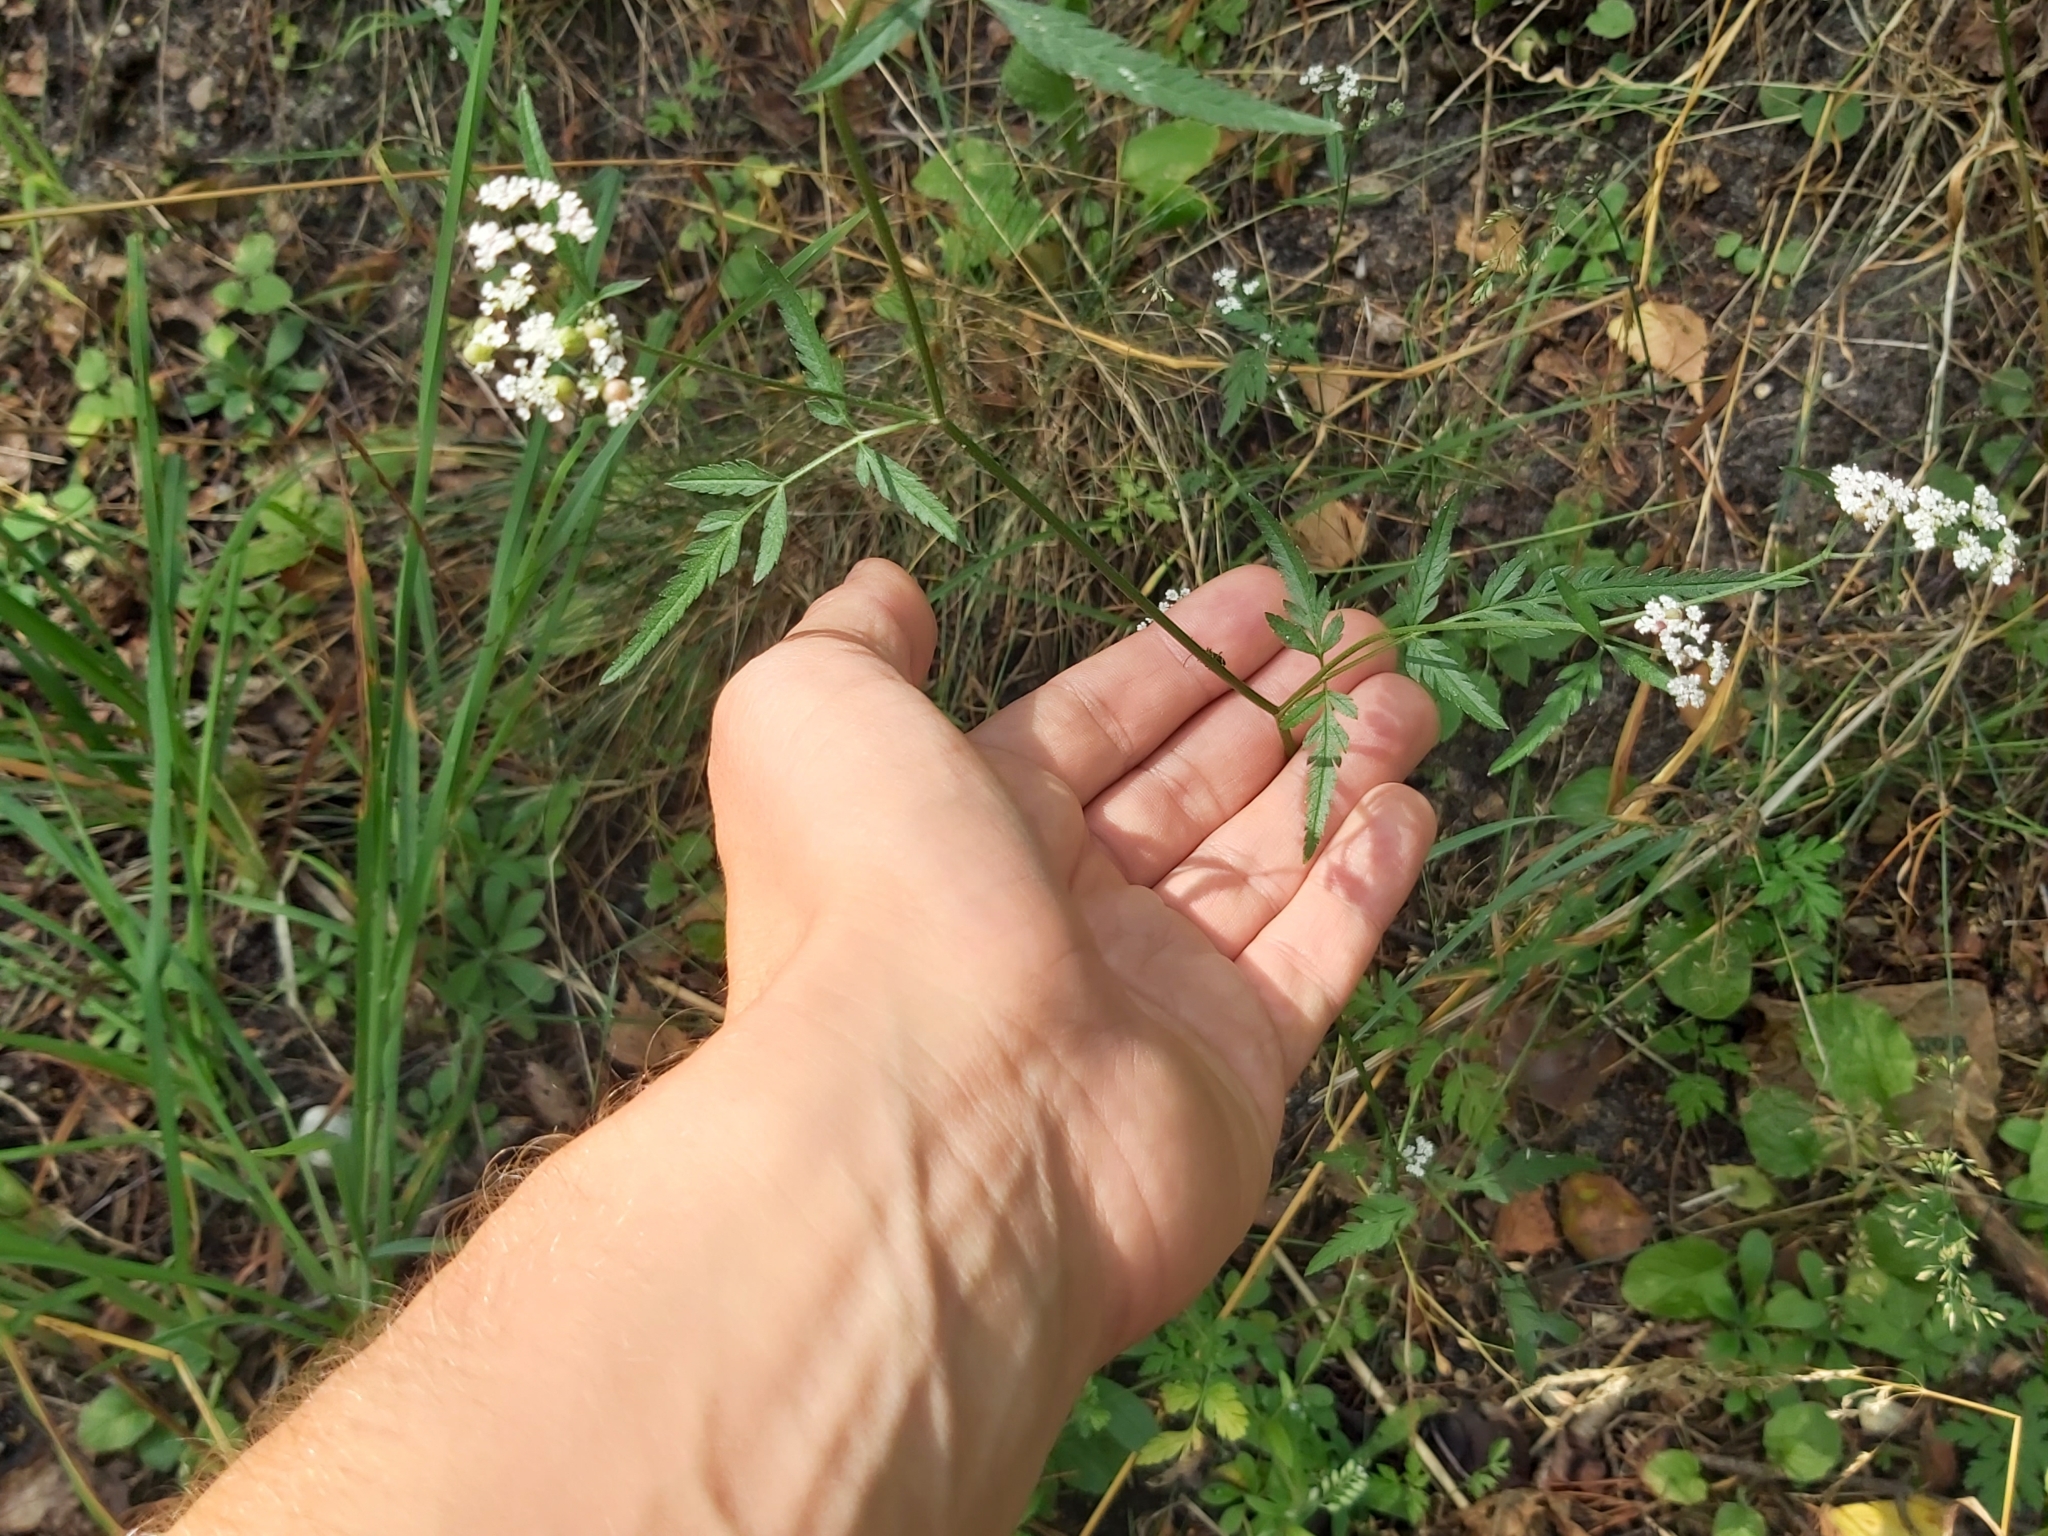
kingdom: Plantae
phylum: Tracheophyta
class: Magnoliopsida
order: Apiales
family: Apiaceae
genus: Torilis
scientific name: Torilis japonica
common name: Upright hedge-parsley
